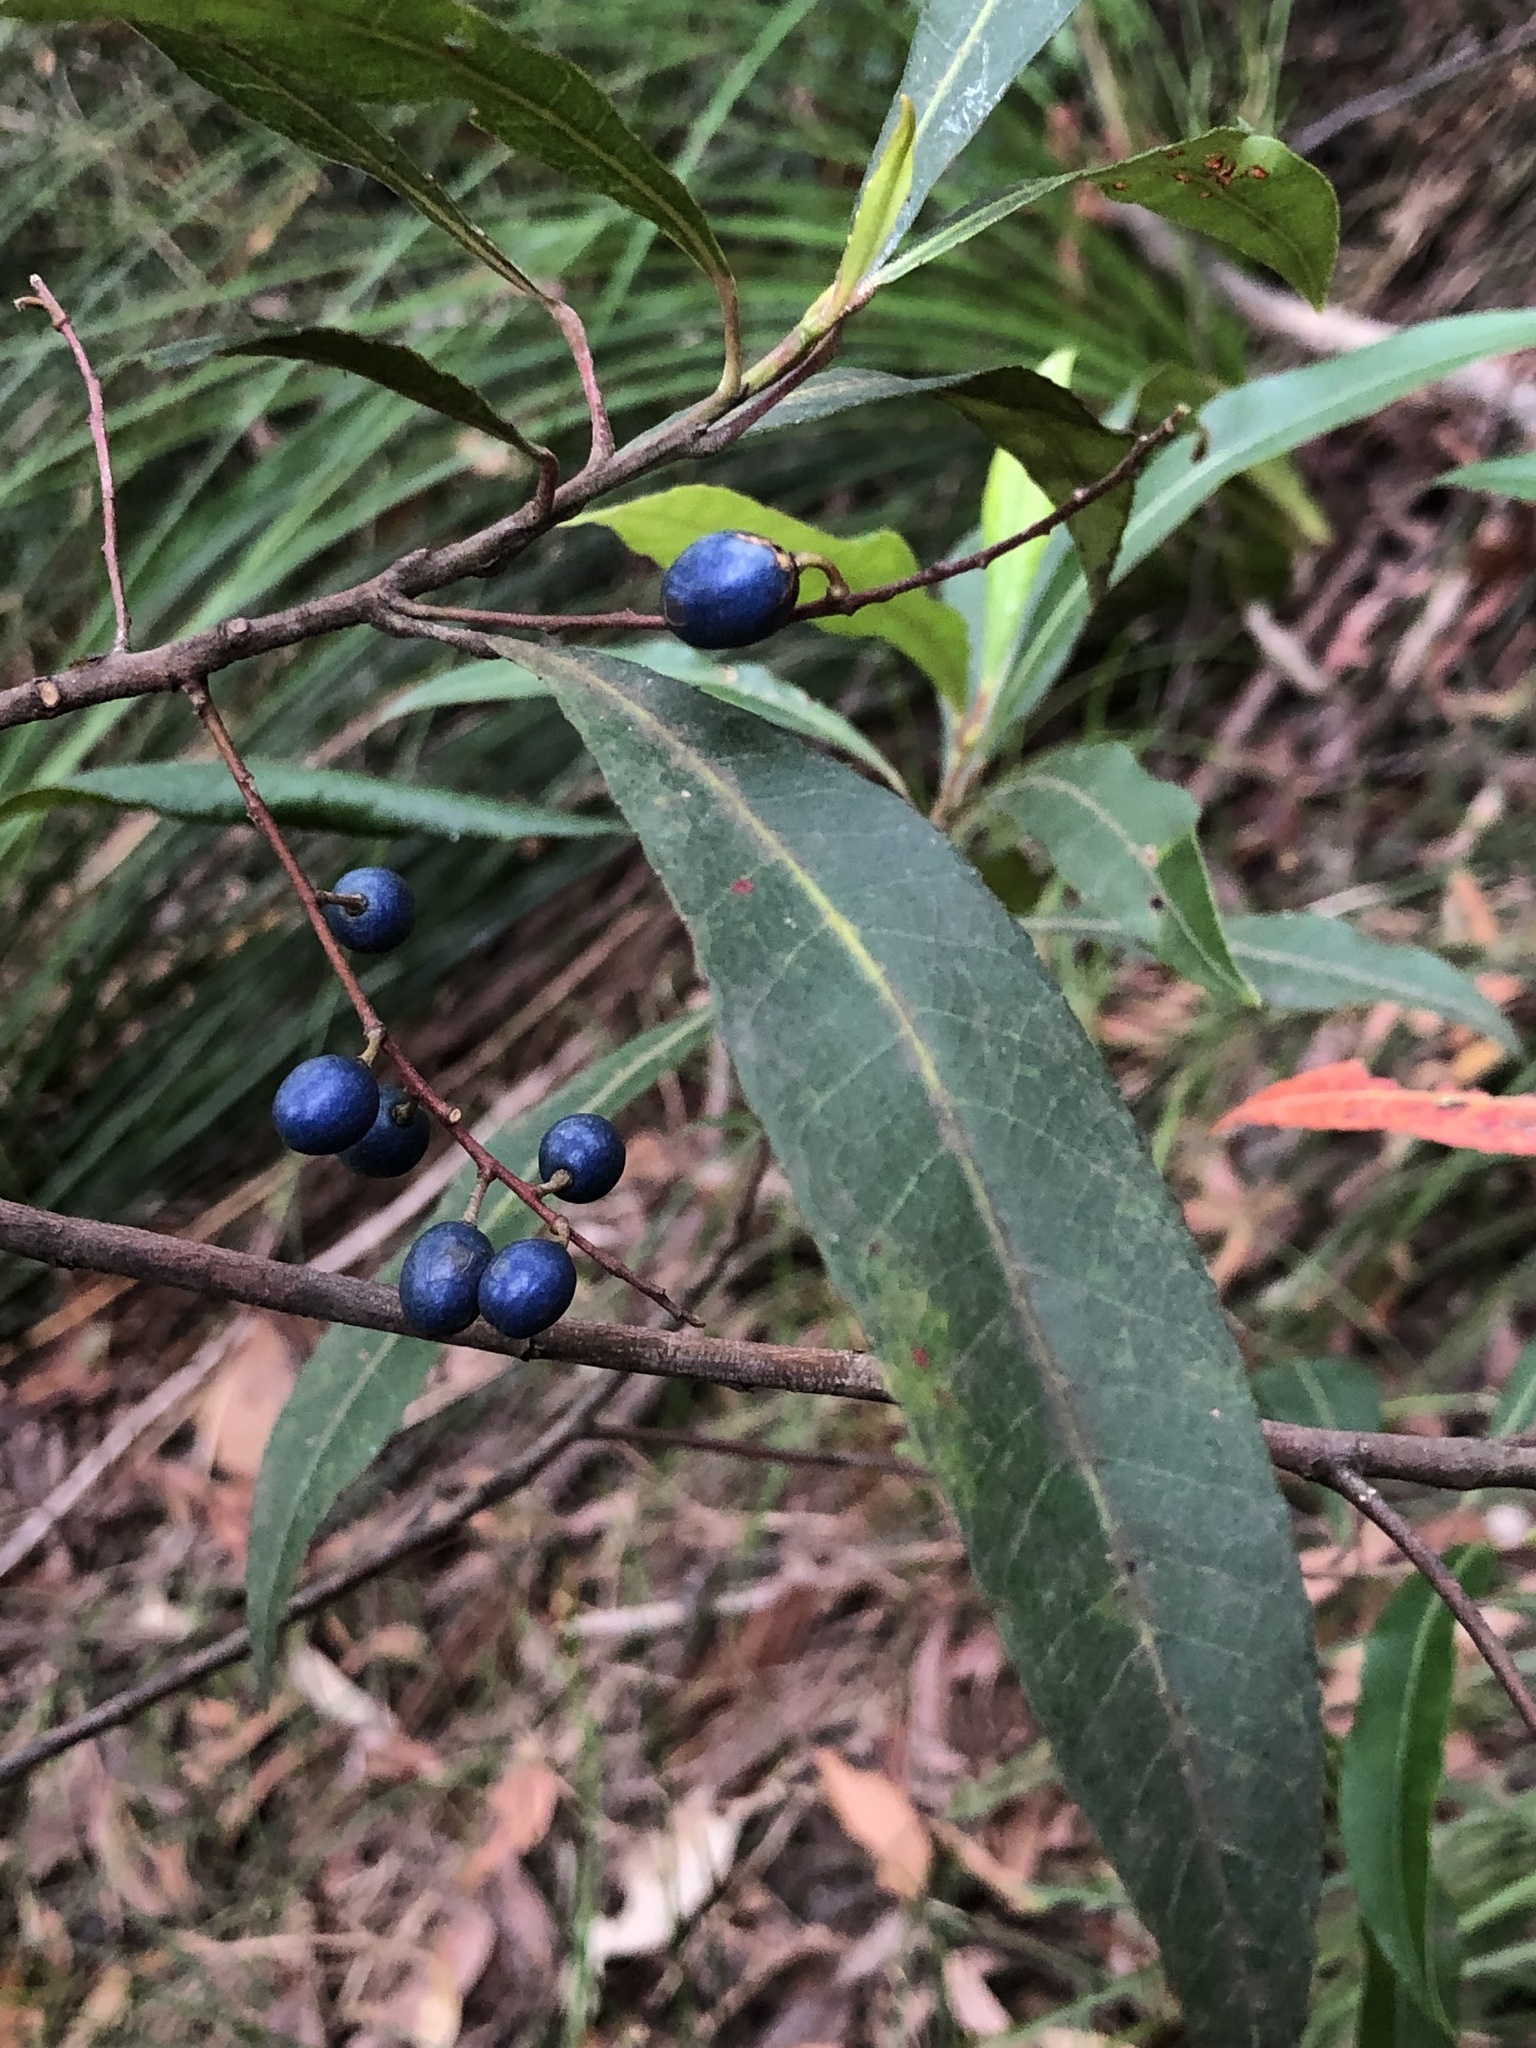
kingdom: Plantae
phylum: Tracheophyta
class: Magnoliopsida
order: Oxalidales
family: Elaeocarpaceae
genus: Elaeocarpus
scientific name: Elaeocarpus reticulatus
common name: Ash quandong
